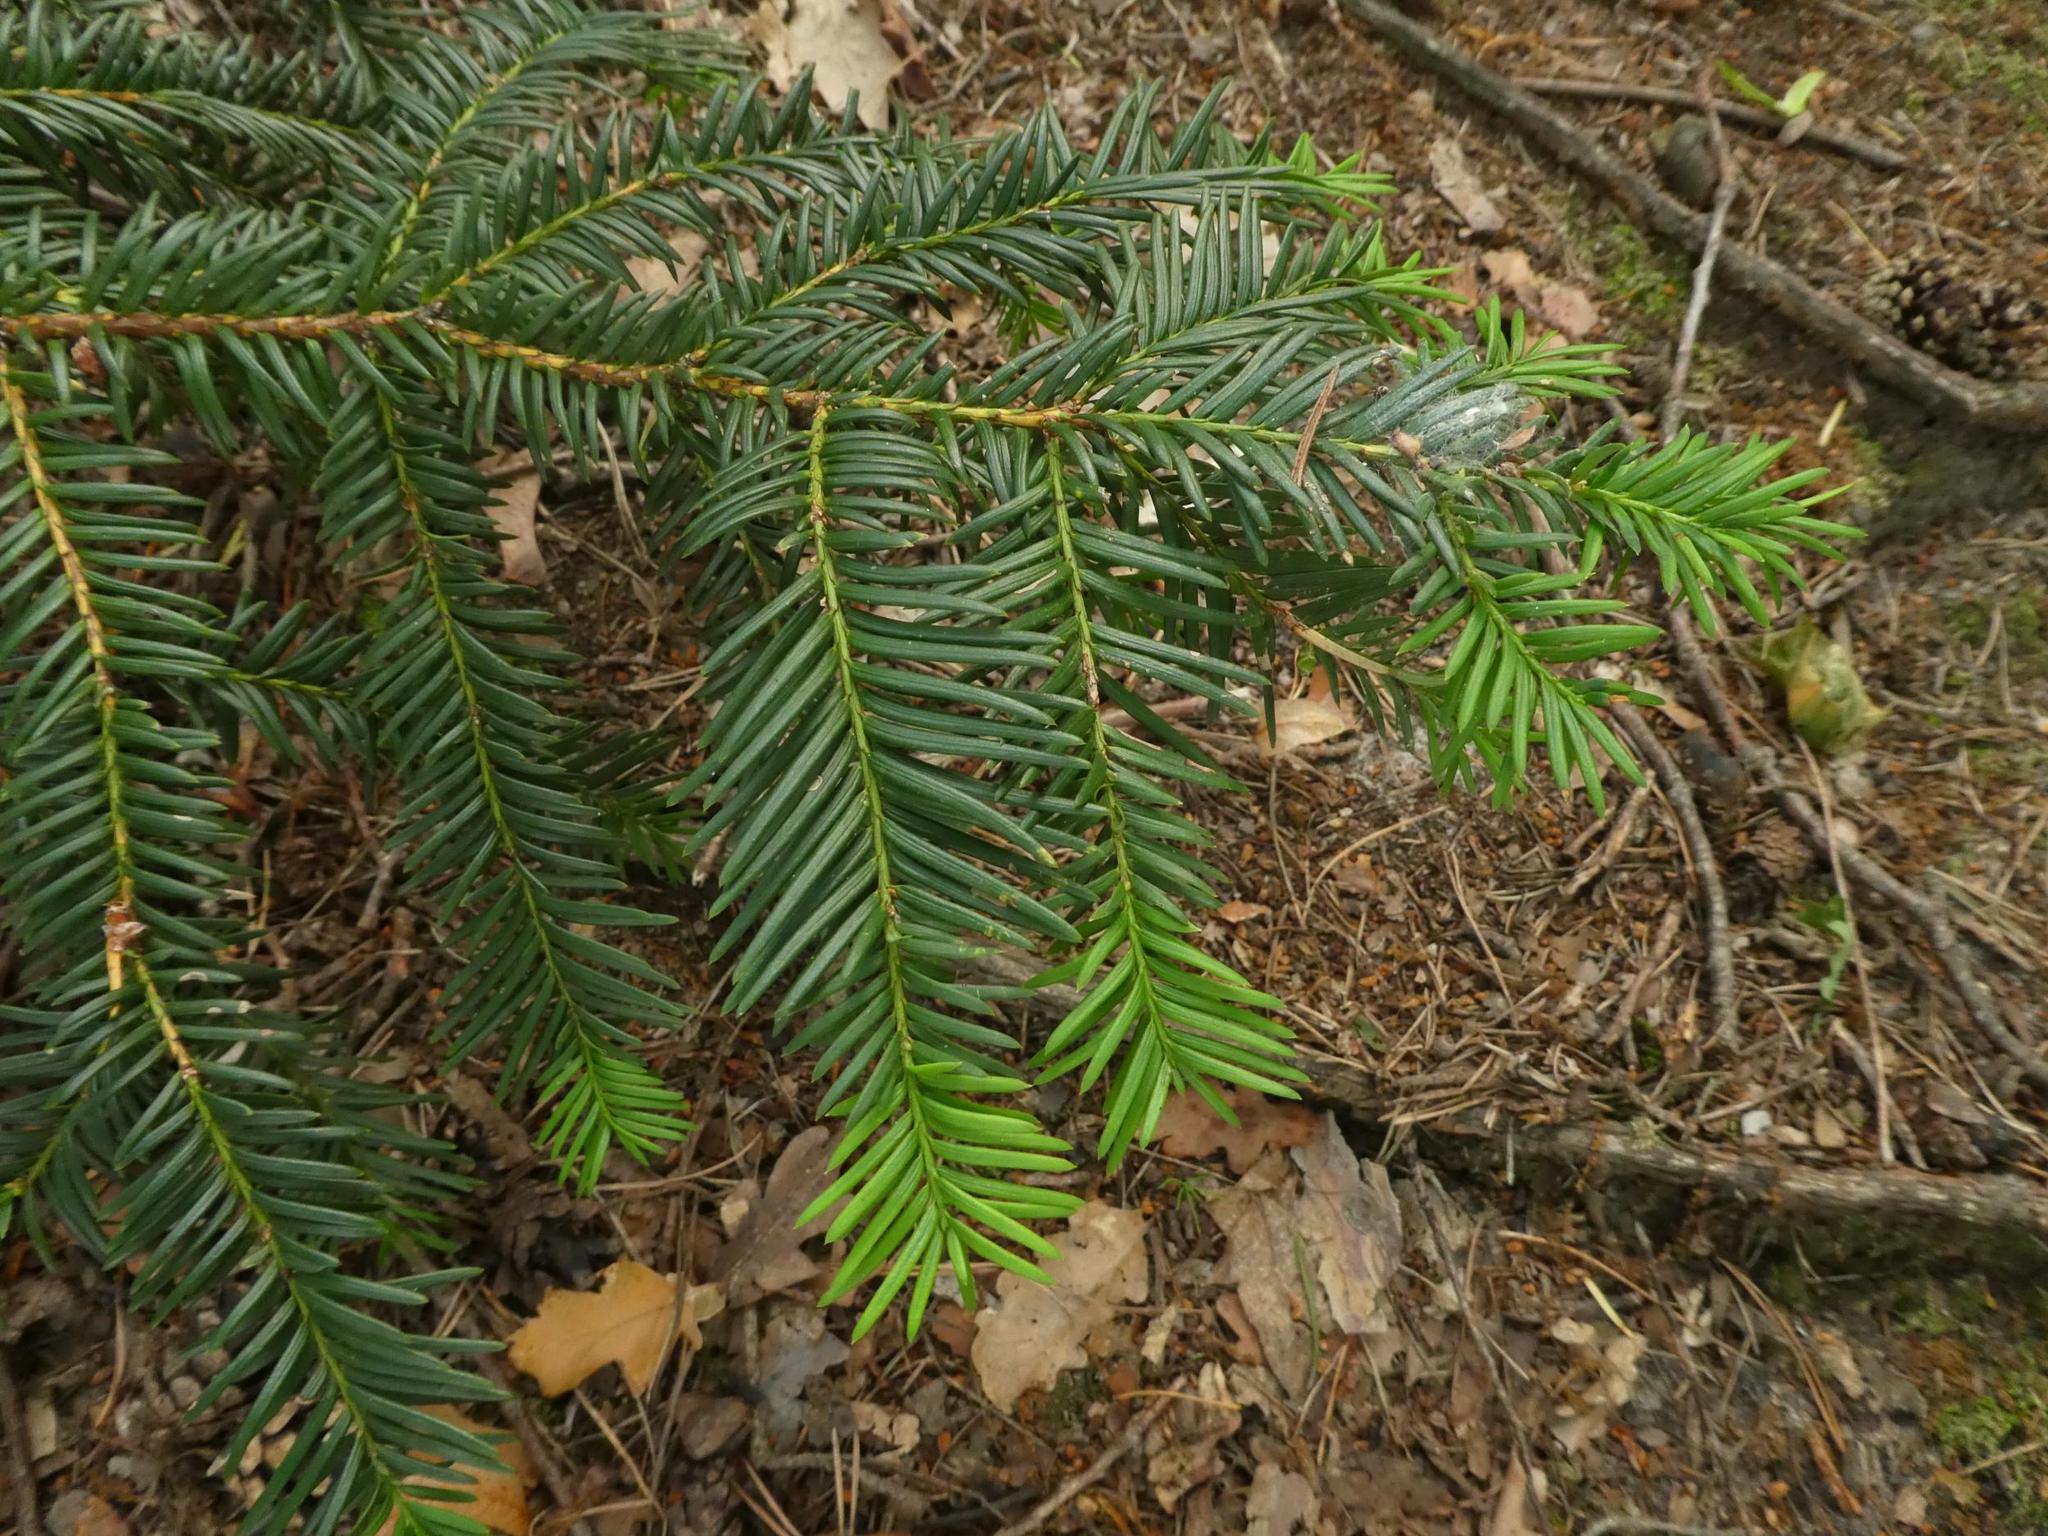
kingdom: Plantae
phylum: Tracheophyta
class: Pinopsida
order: Pinales
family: Taxaceae
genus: Taxus
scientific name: Taxus baccata
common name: Yew
